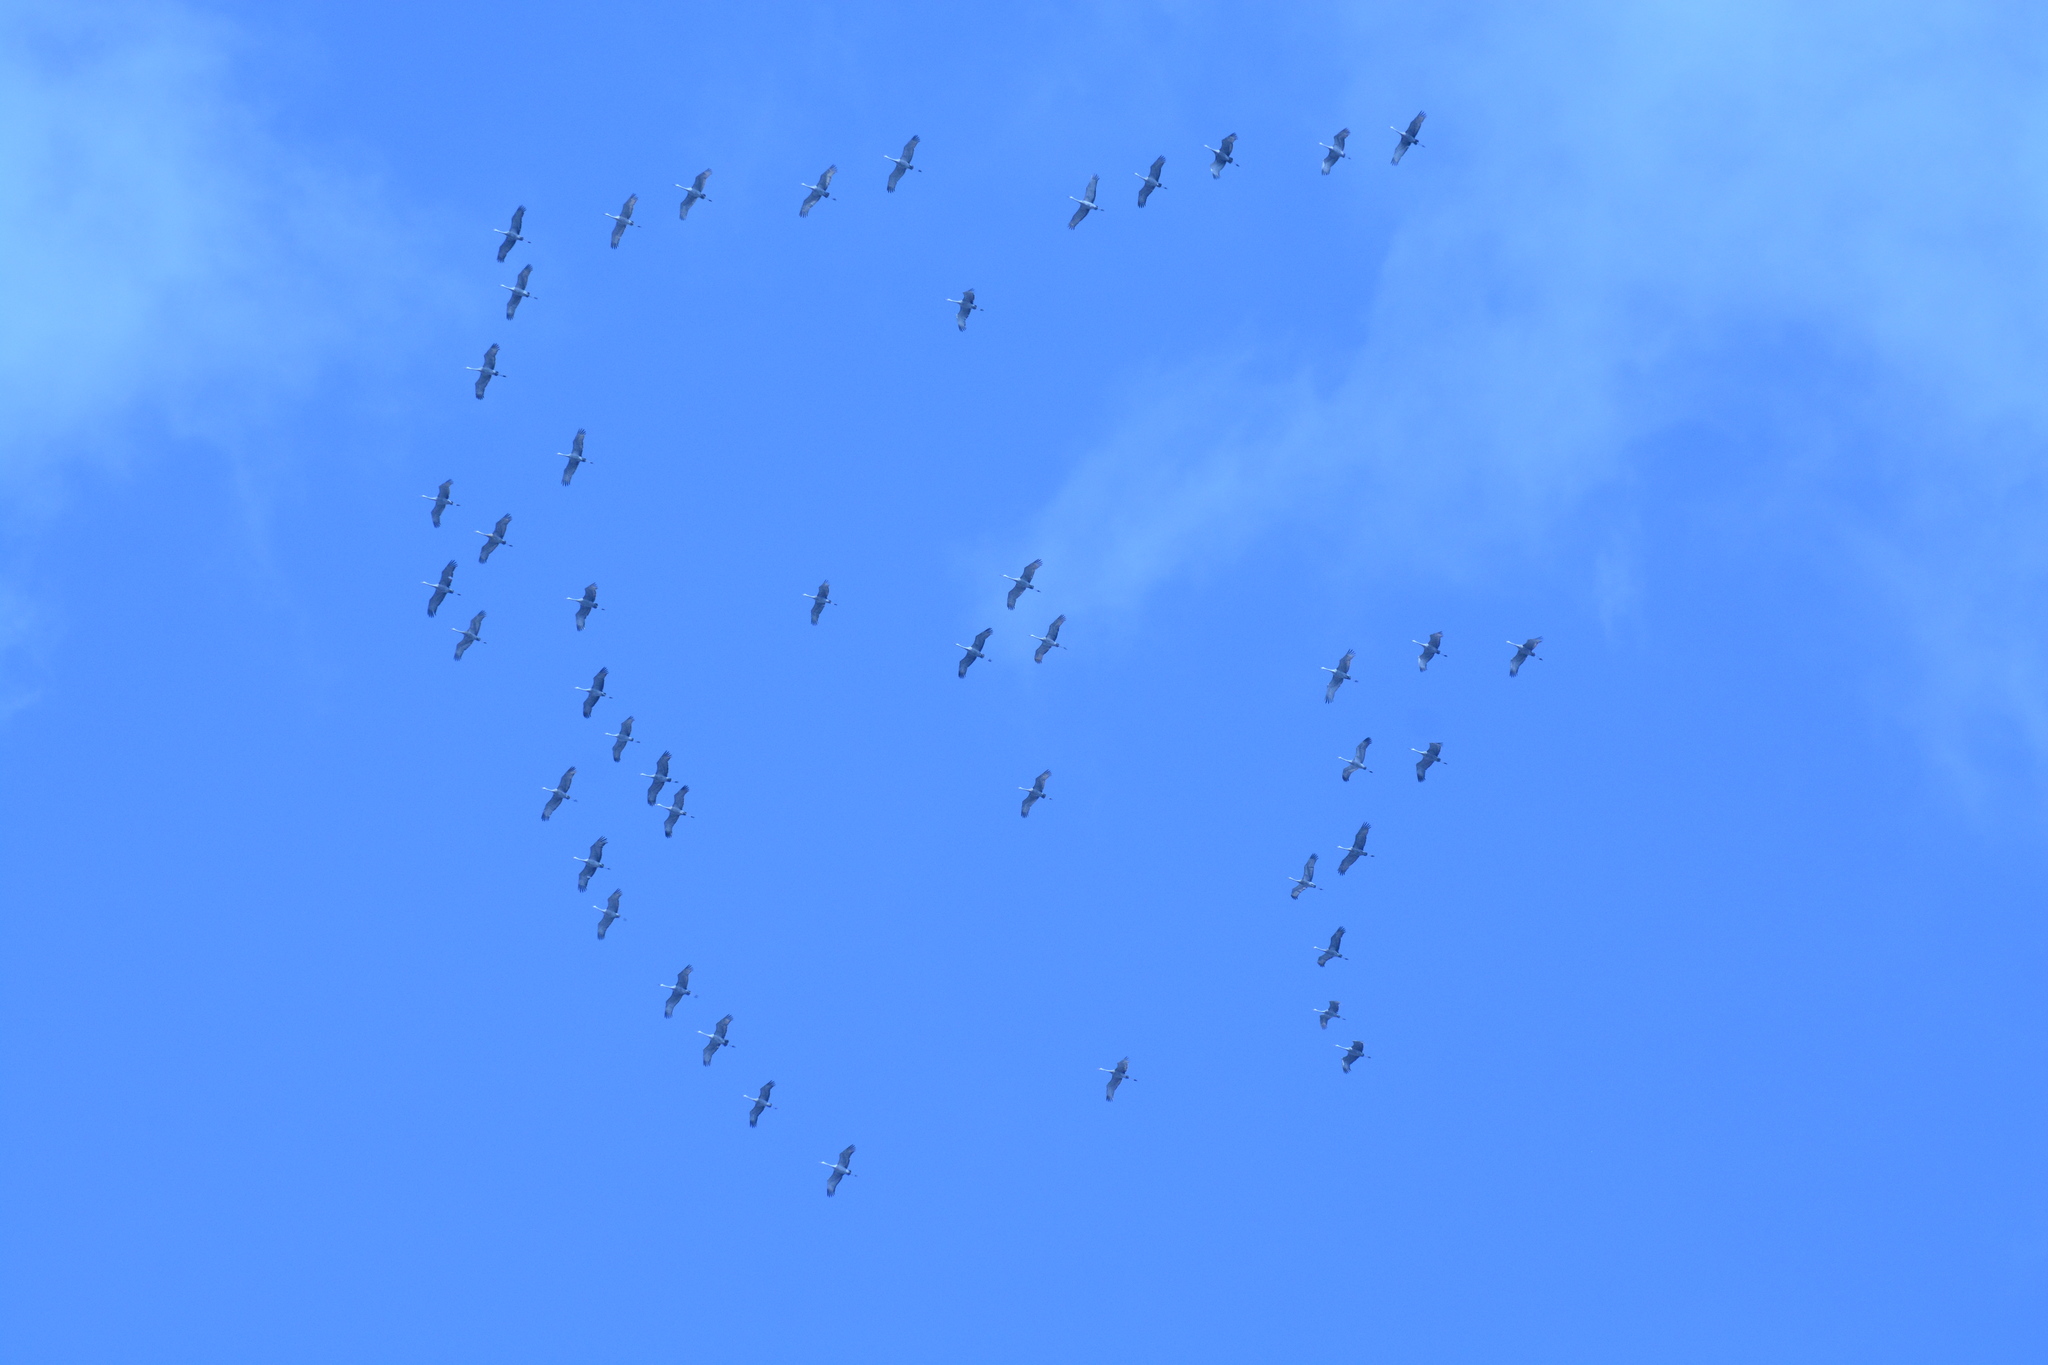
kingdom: Animalia
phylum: Chordata
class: Aves
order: Gruiformes
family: Gruidae
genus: Grus
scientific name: Grus canadensis
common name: Sandhill crane
